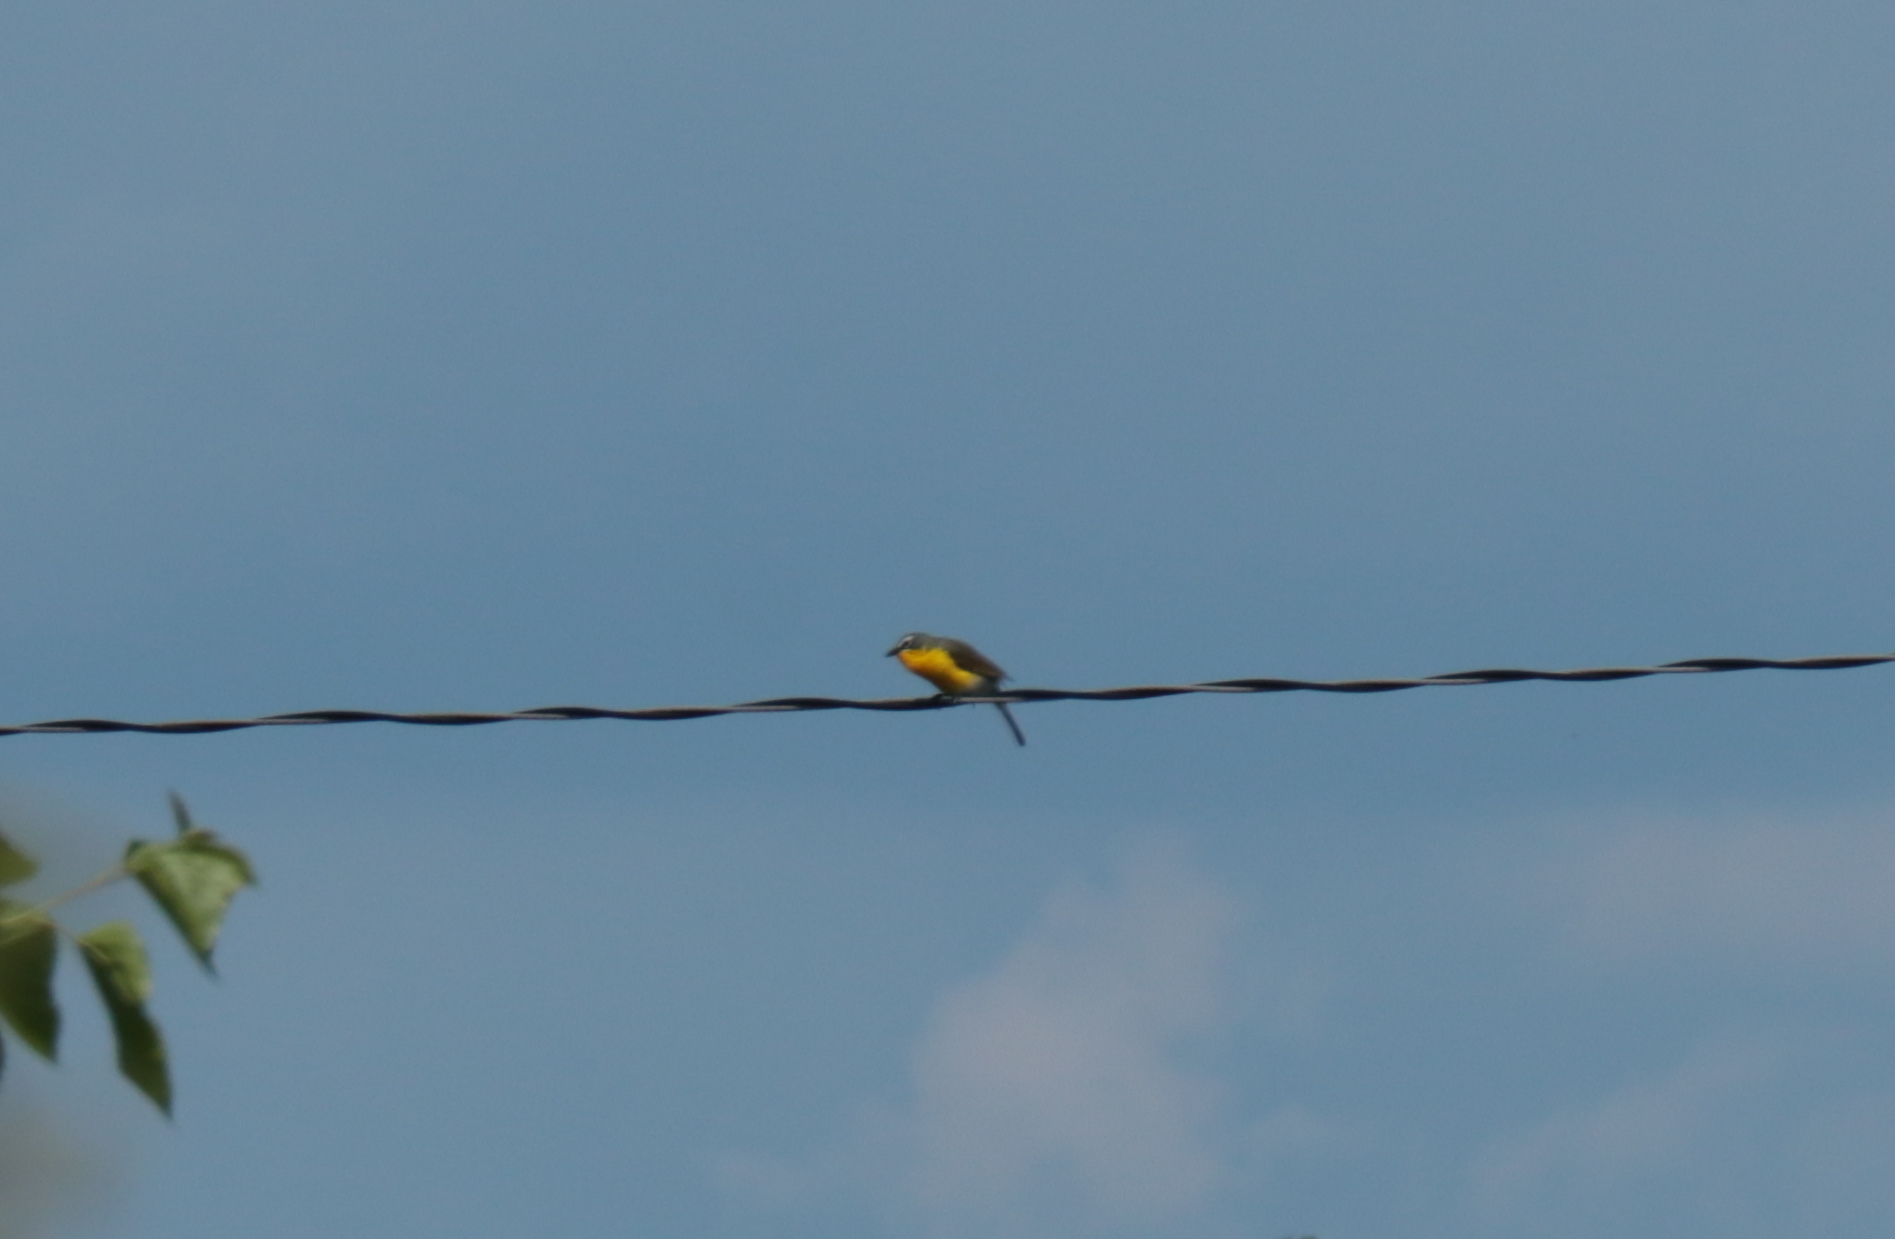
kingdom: Animalia
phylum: Chordata
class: Aves
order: Passeriformes
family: Parulidae
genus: Icteria
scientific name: Icteria virens
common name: Yellow-breasted chat
